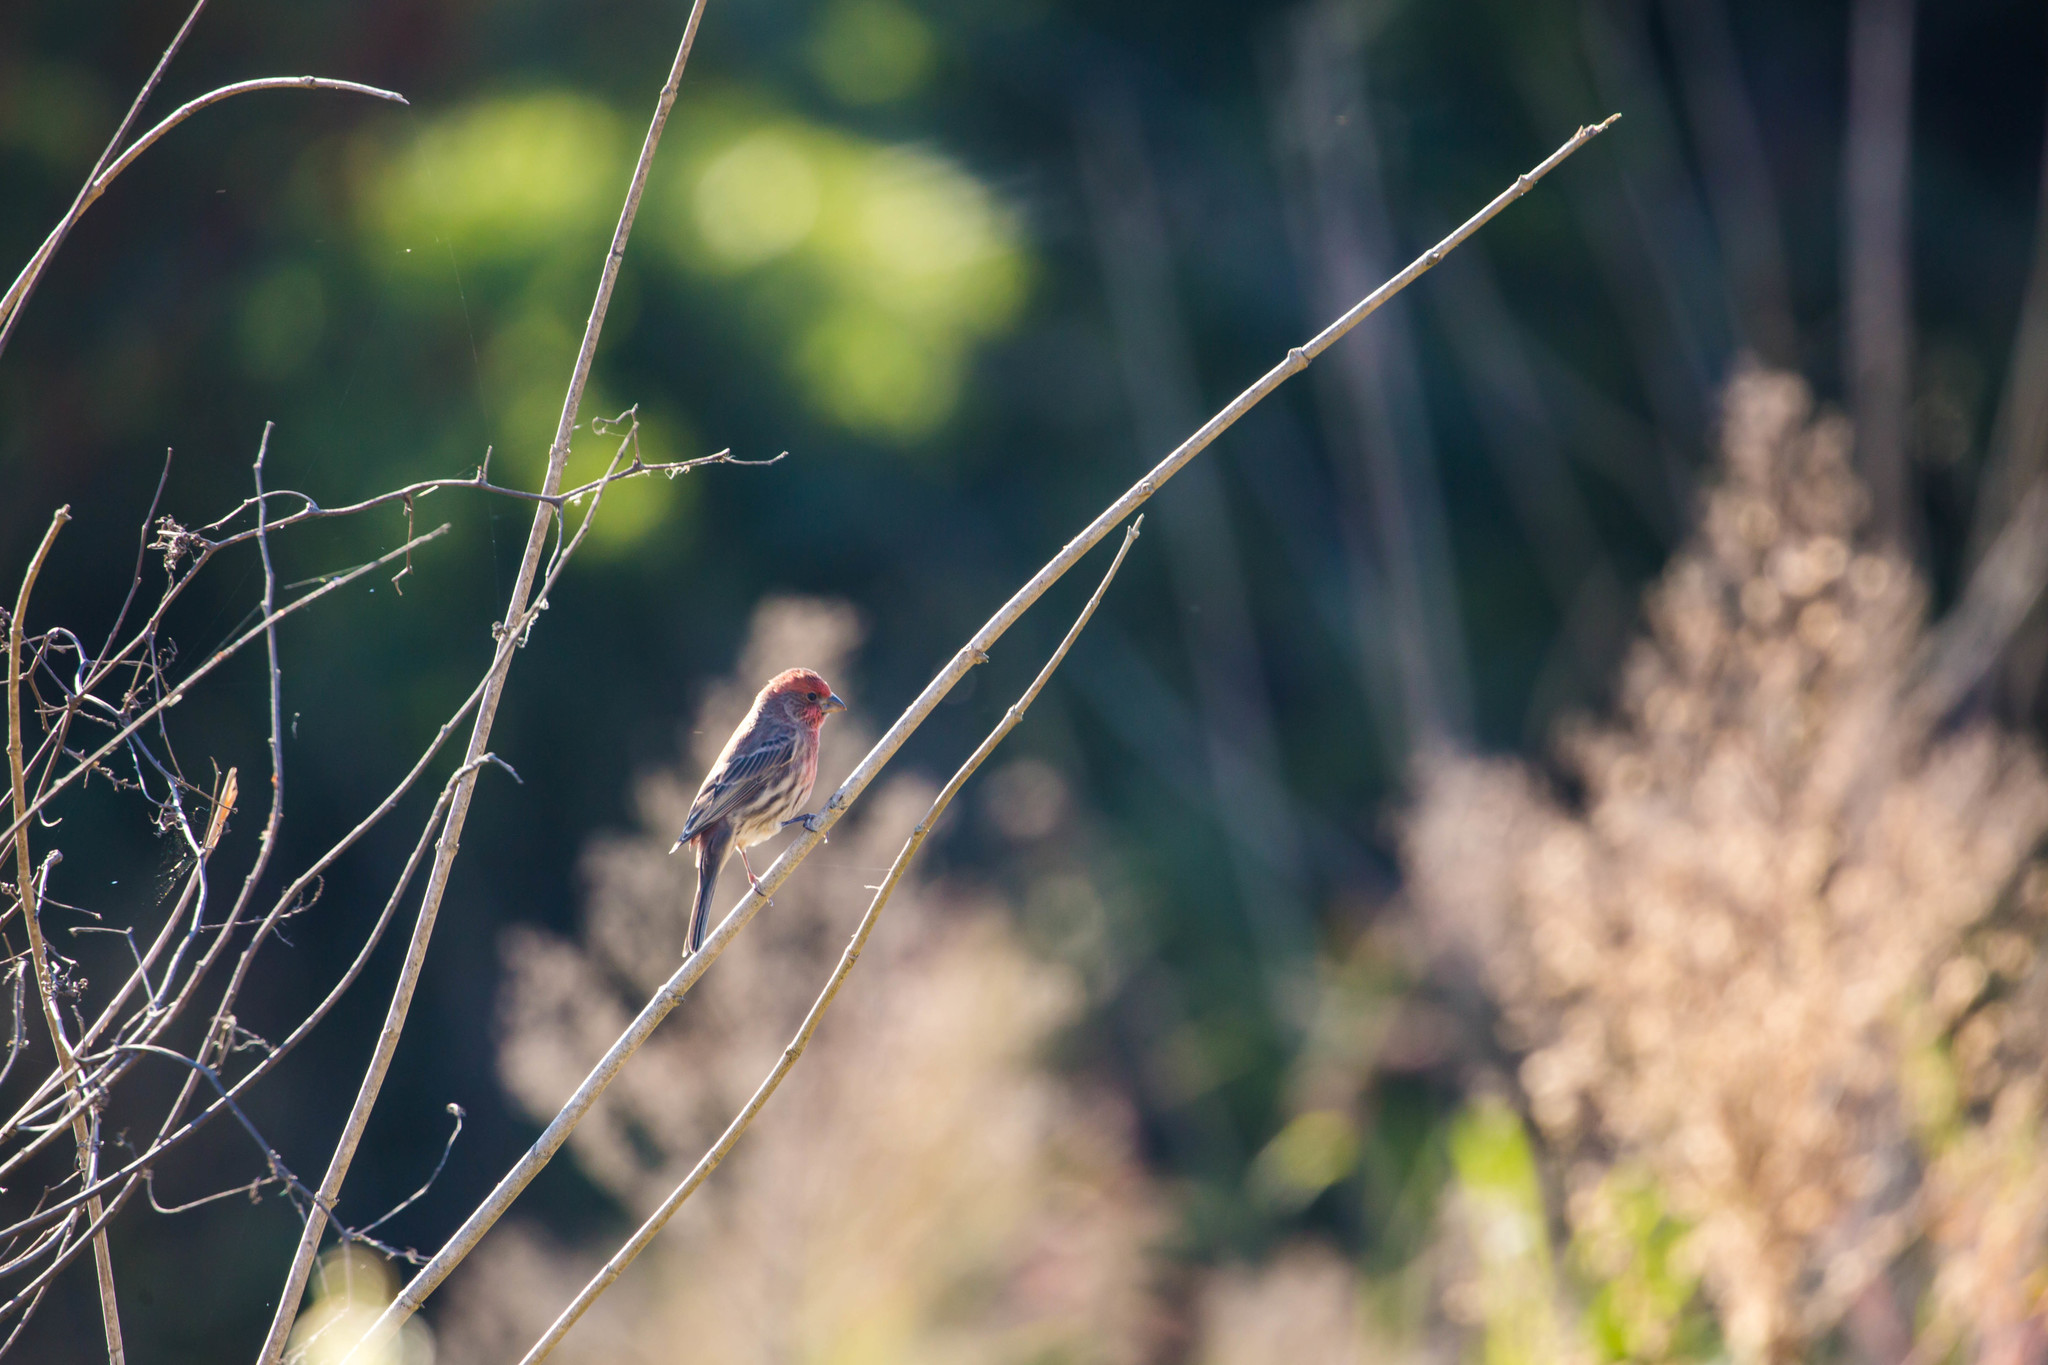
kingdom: Animalia
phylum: Chordata
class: Aves
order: Passeriformes
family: Fringillidae
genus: Haemorhous
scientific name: Haemorhous mexicanus
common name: House finch
